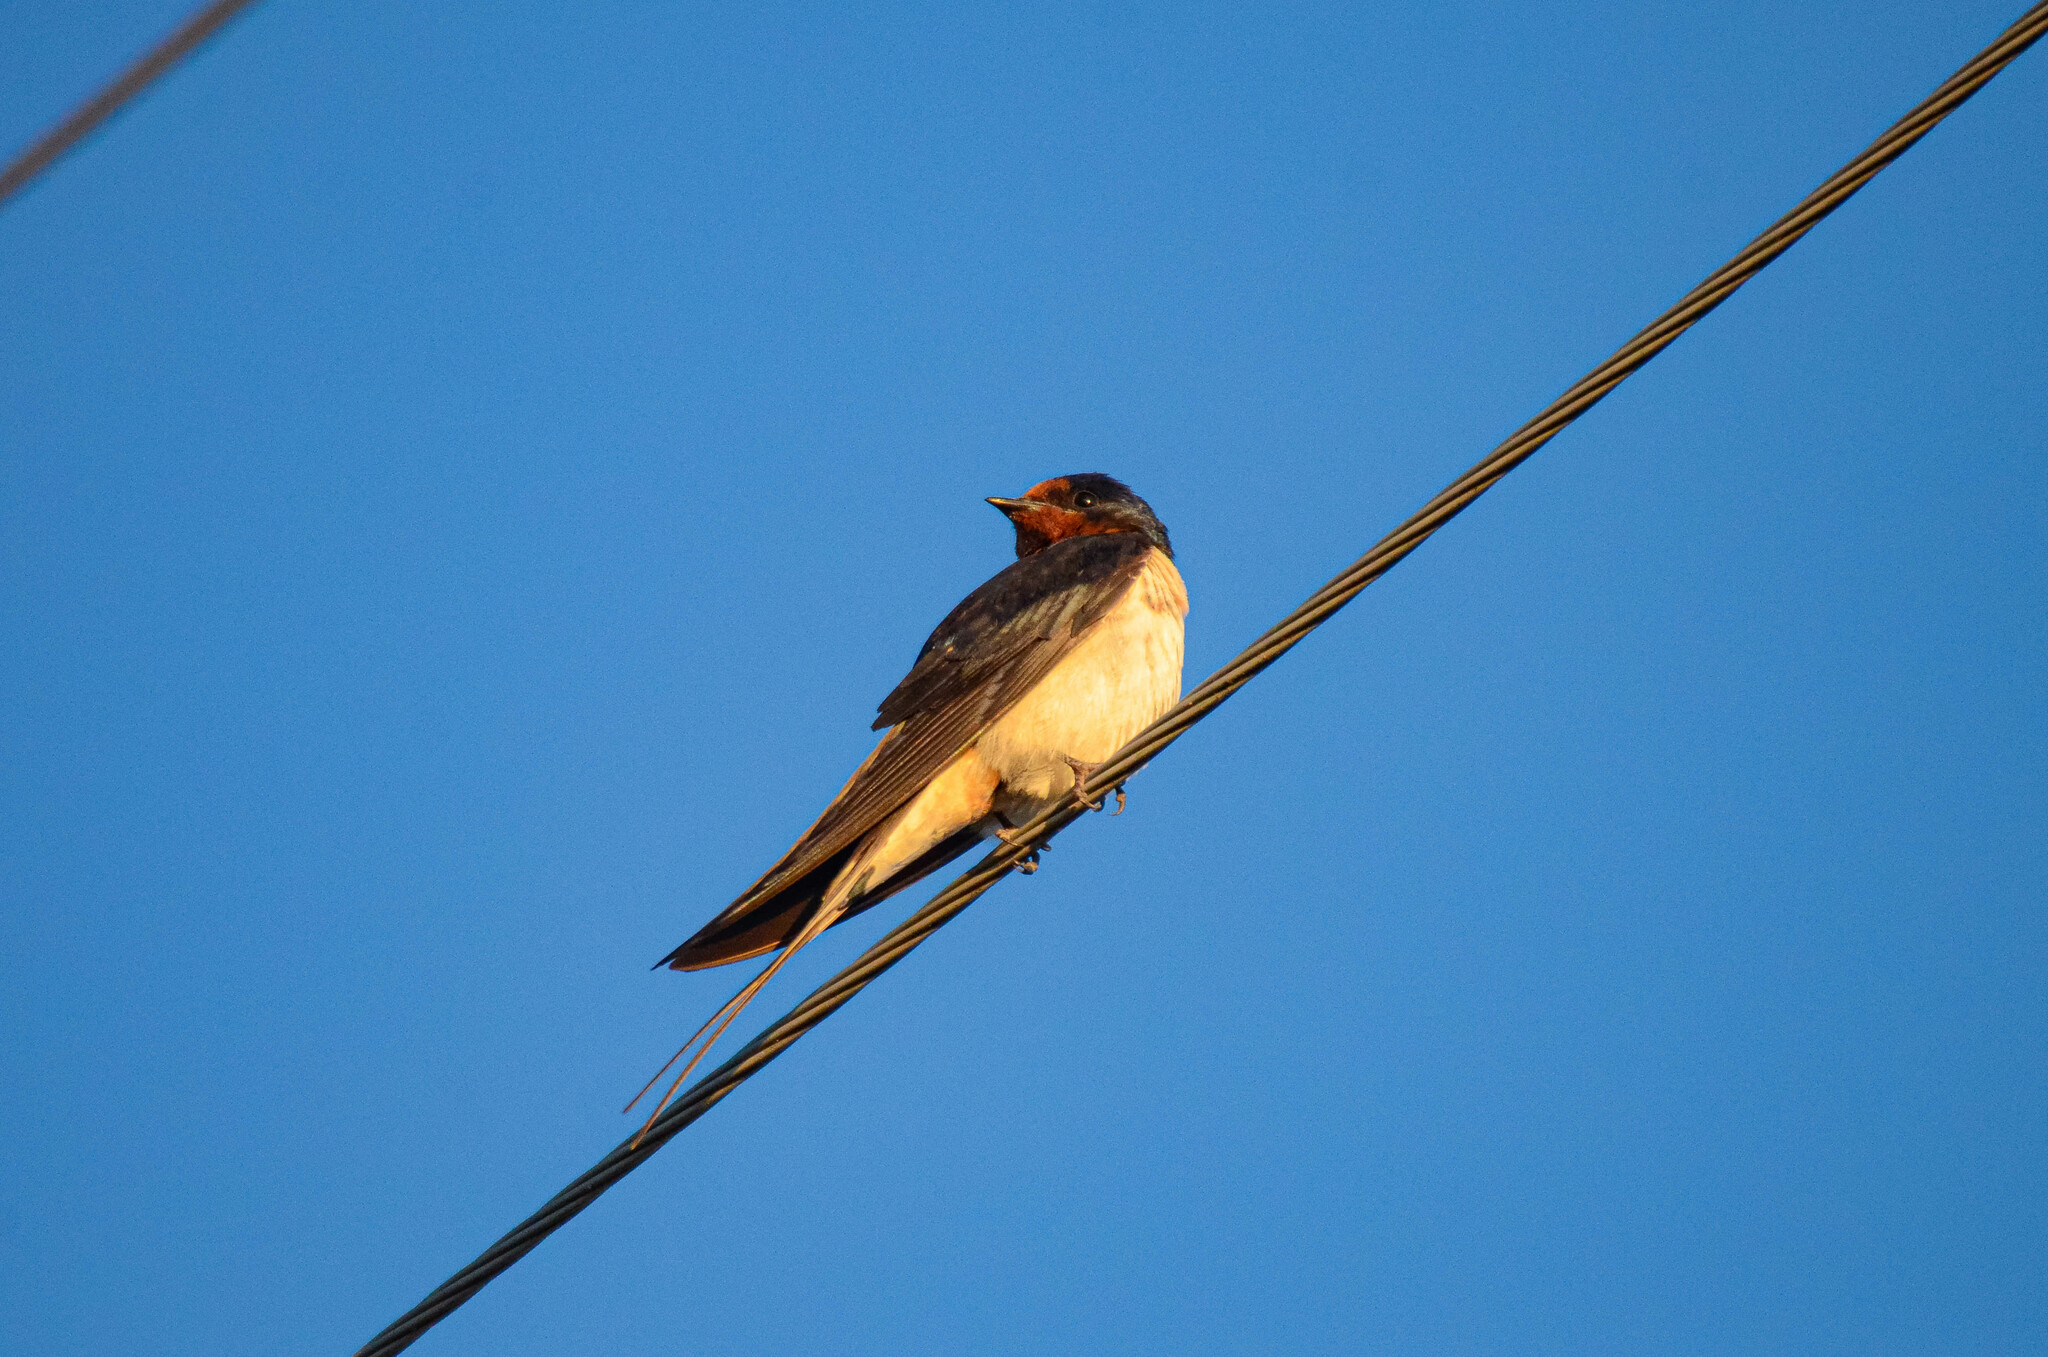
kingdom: Animalia
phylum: Chordata
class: Aves
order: Passeriformes
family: Hirundinidae
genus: Hirundo
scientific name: Hirundo rustica
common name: Barn swallow
